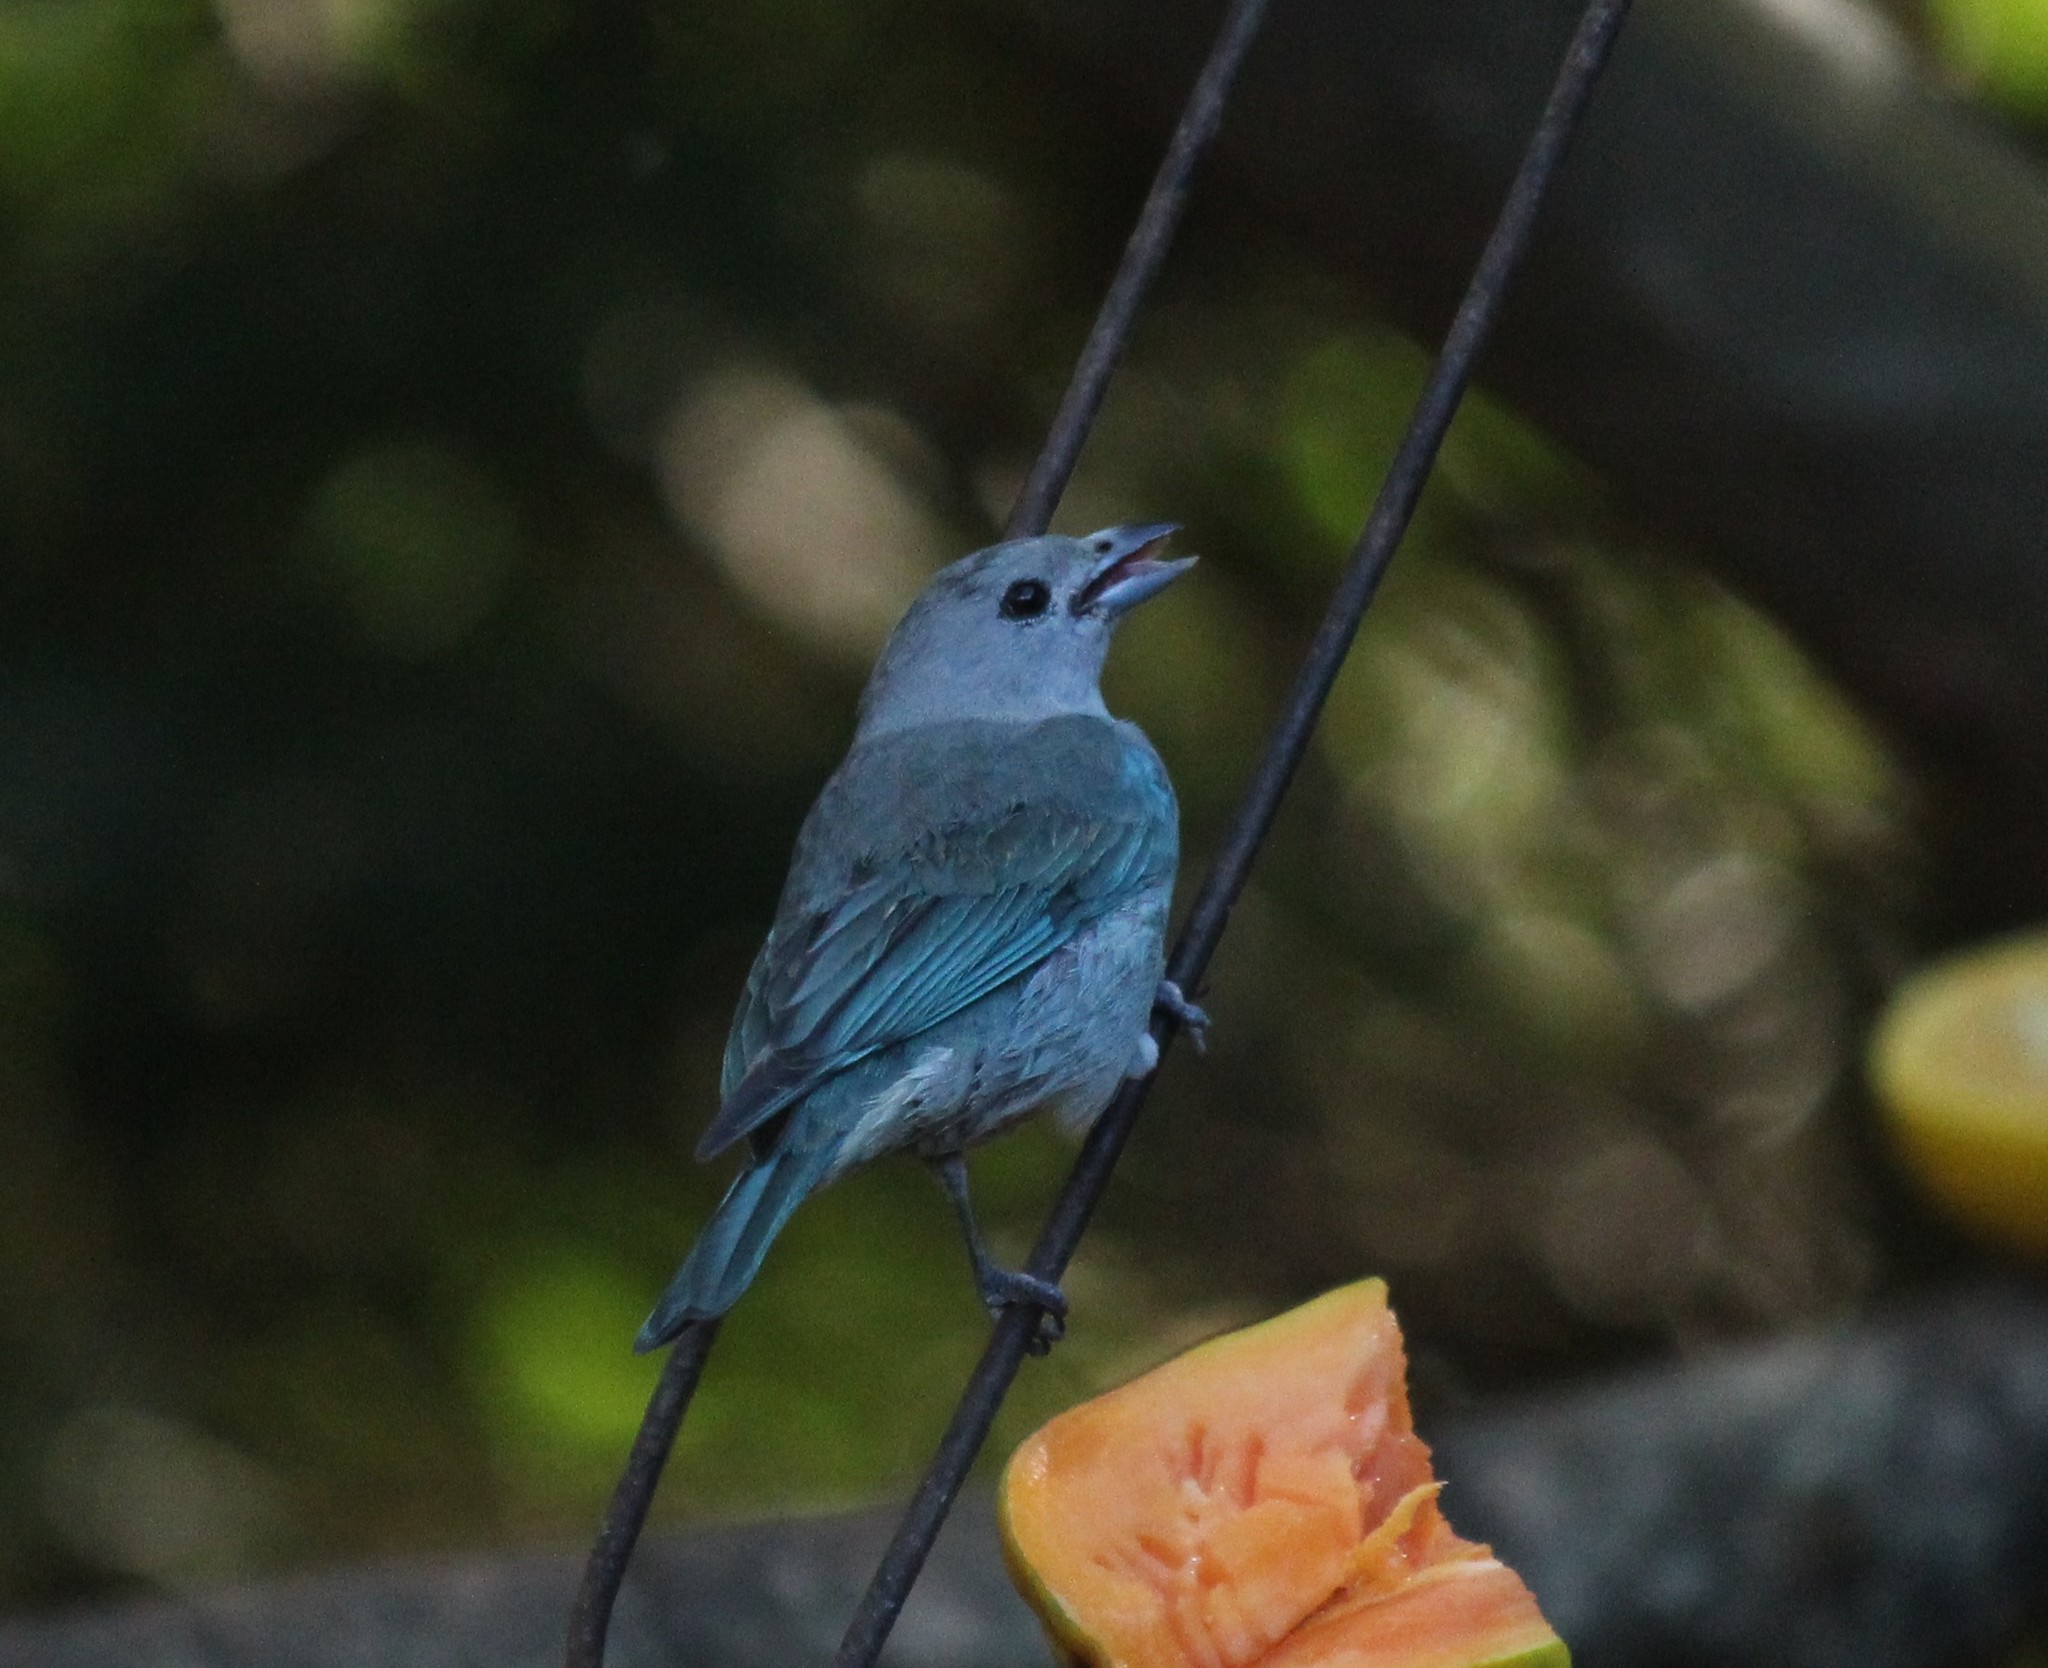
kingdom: Animalia
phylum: Chordata
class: Aves
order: Passeriformes
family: Thraupidae
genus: Thraupis
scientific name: Thraupis sayaca
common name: Sayaca tanager
